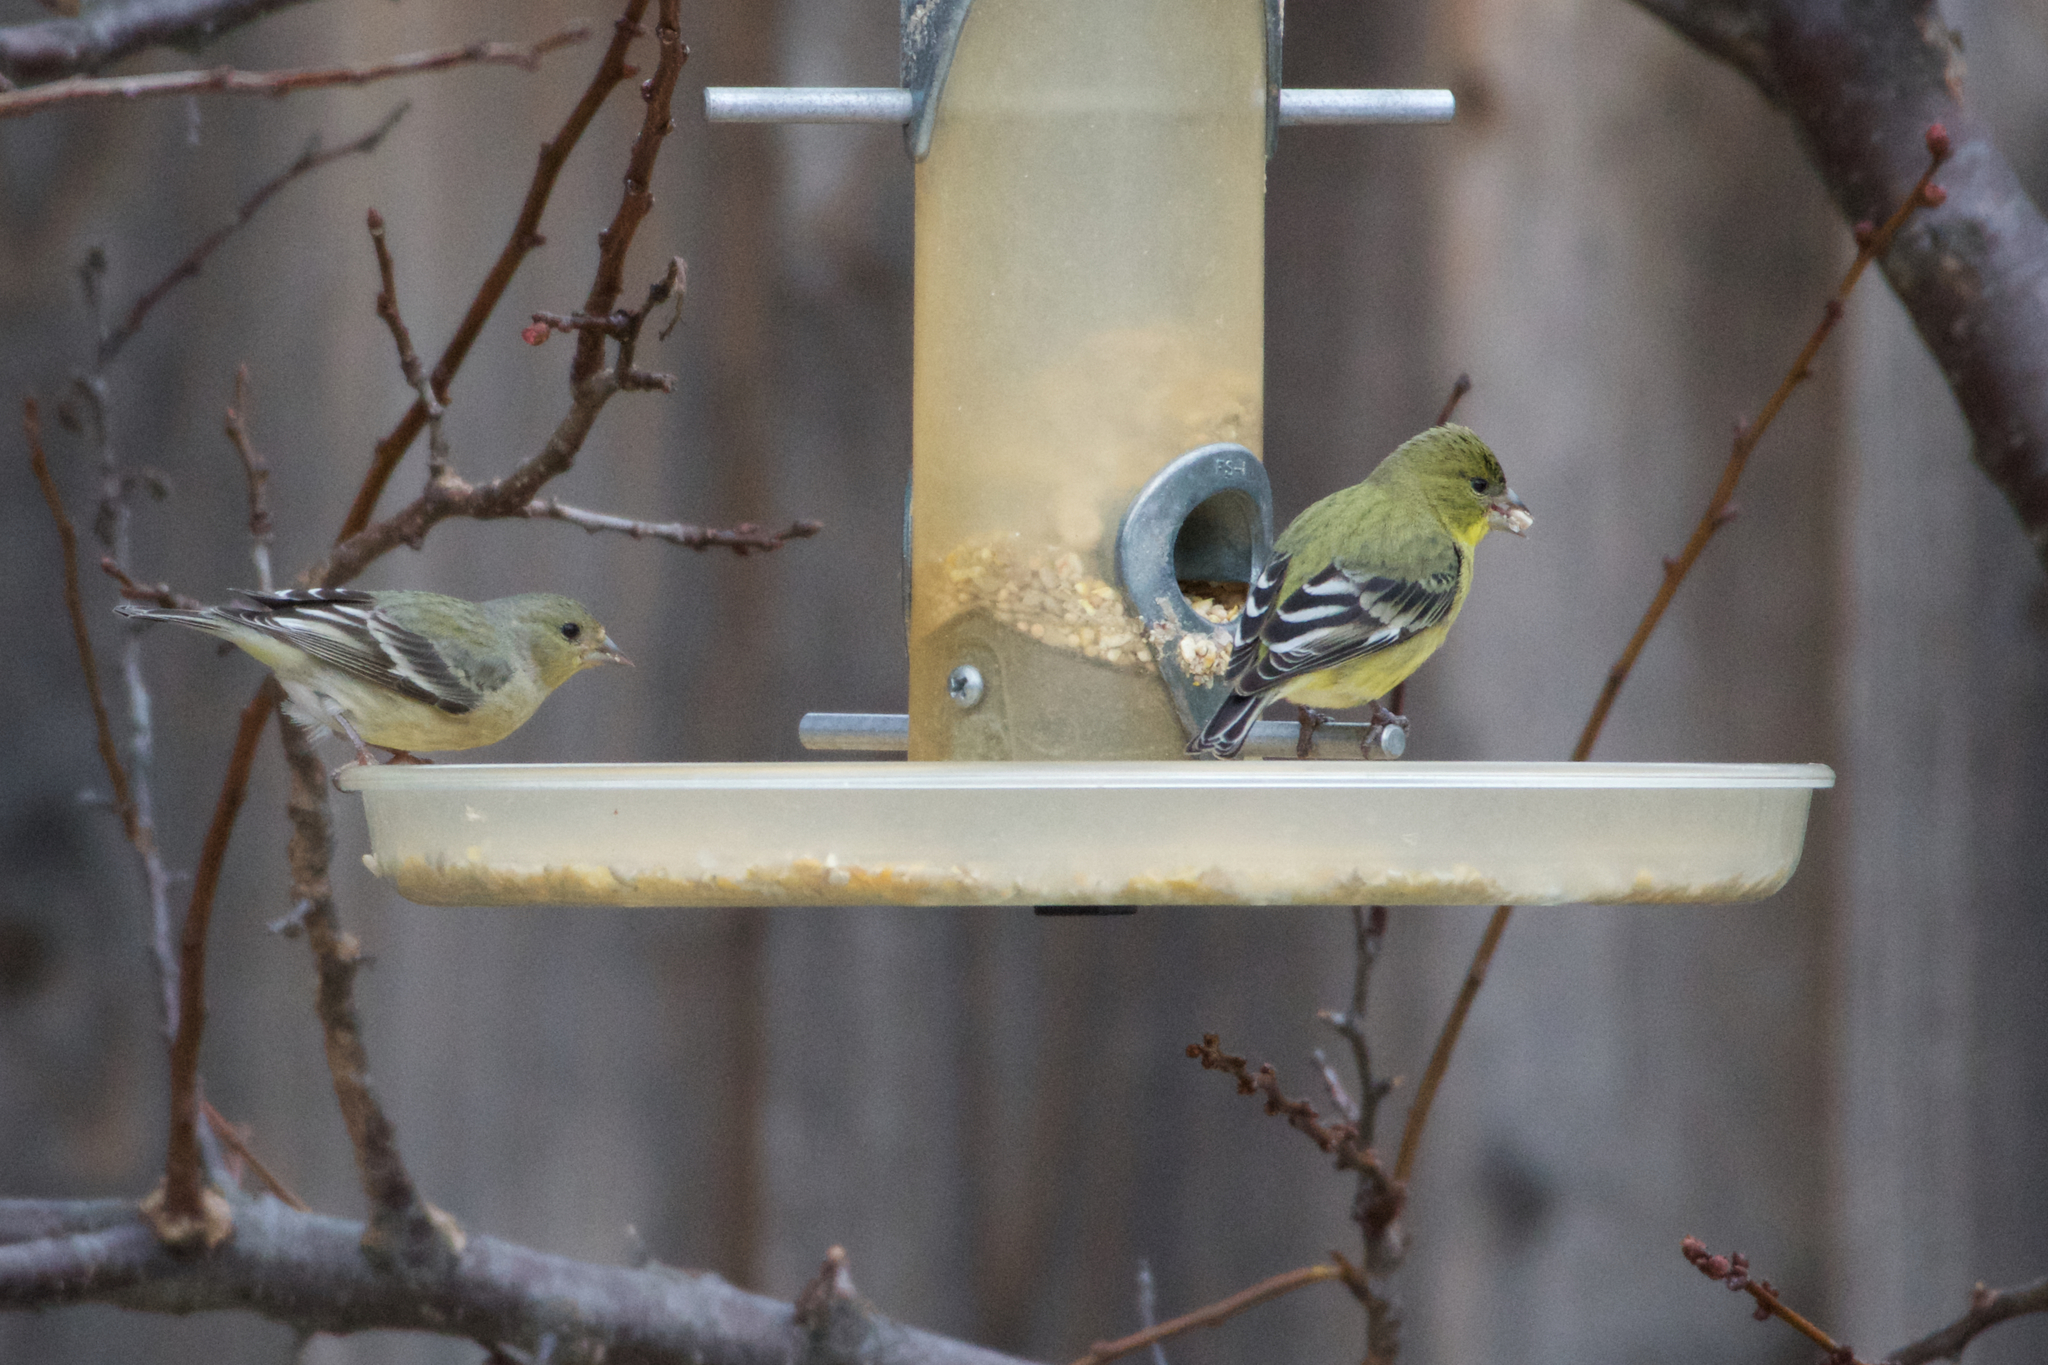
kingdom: Animalia
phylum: Chordata
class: Aves
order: Passeriformes
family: Fringillidae
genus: Spinus
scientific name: Spinus psaltria
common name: Lesser goldfinch
